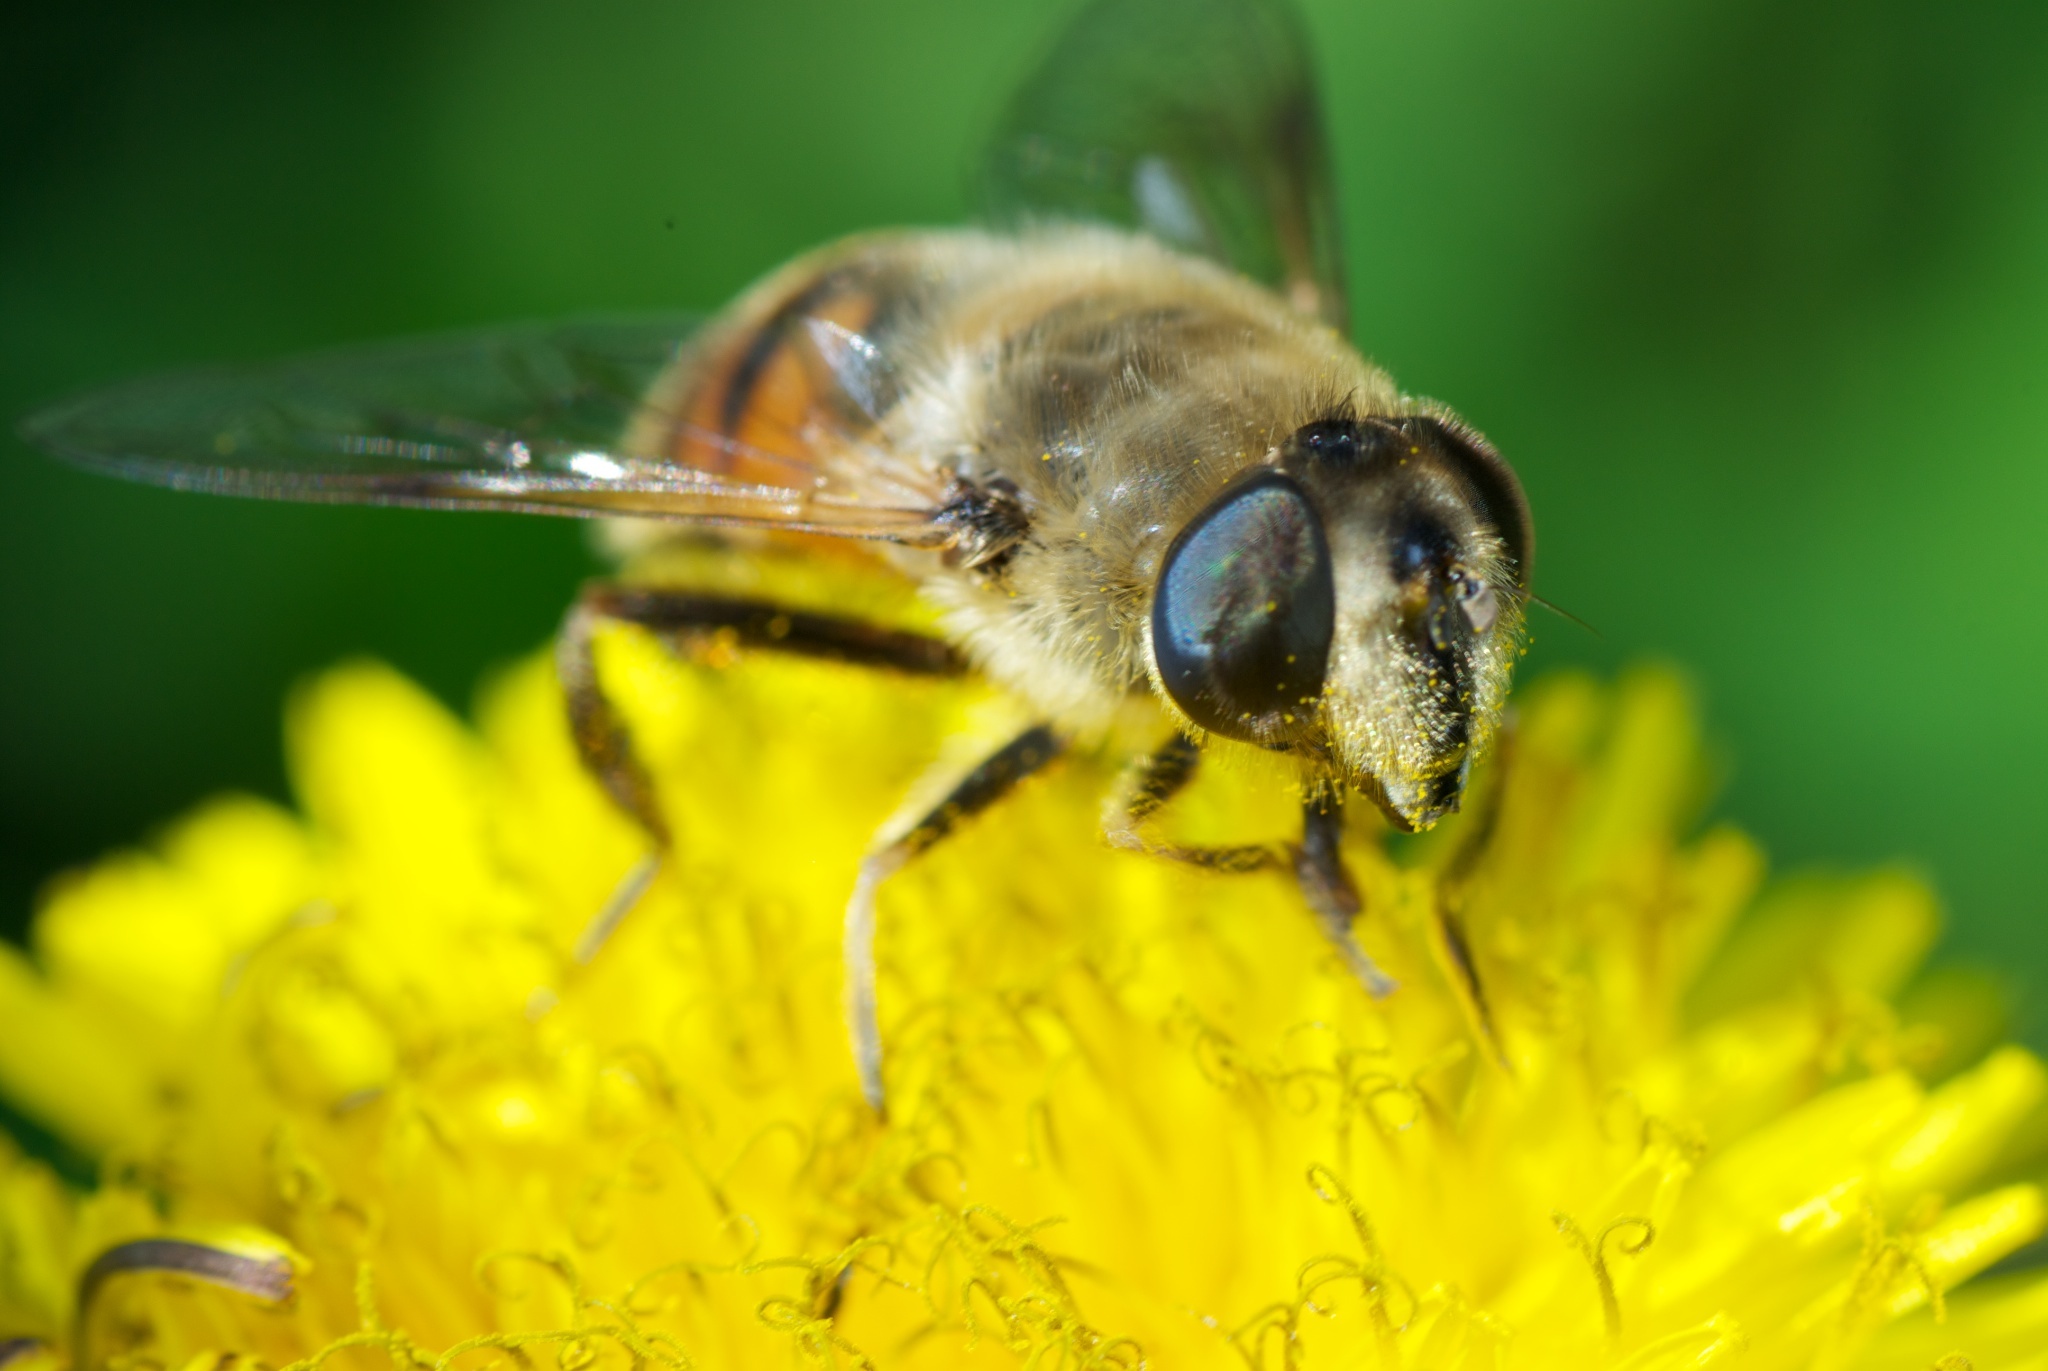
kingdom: Animalia
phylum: Arthropoda
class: Insecta
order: Diptera
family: Syrphidae
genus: Eristalis
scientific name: Eristalis tenax
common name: Drone fly
